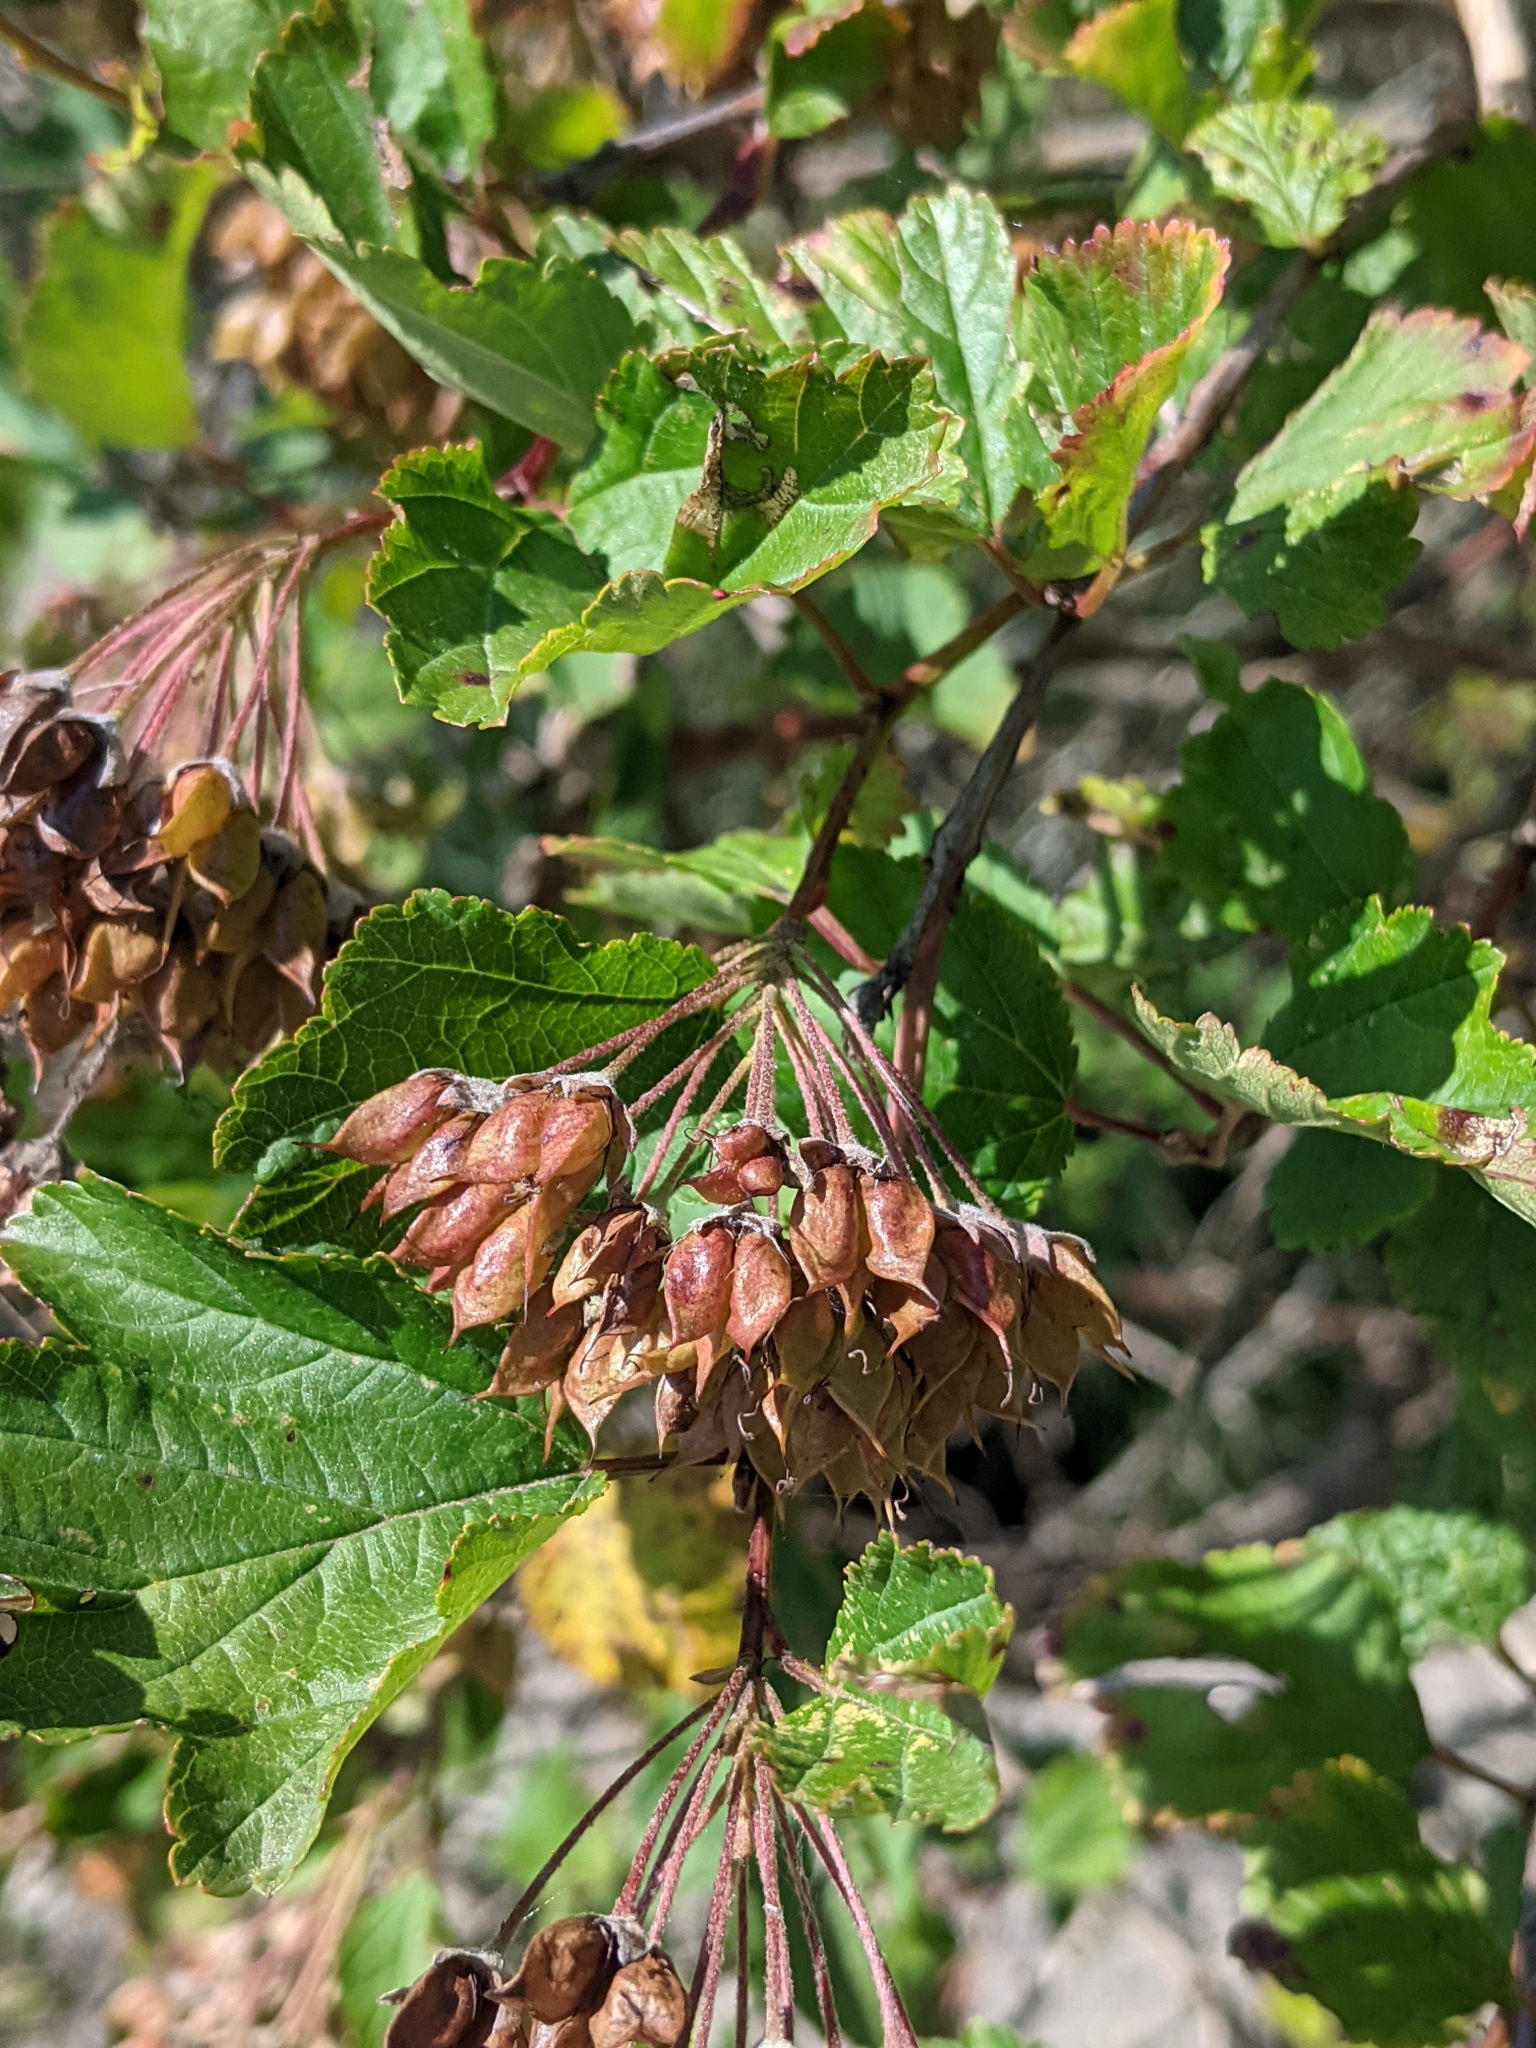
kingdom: Plantae
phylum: Tracheophyta
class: Magnoliopsida
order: Rosales
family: Rosaceae
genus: Physocarpus
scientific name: Physocarpus opulifolius
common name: Ninebark
